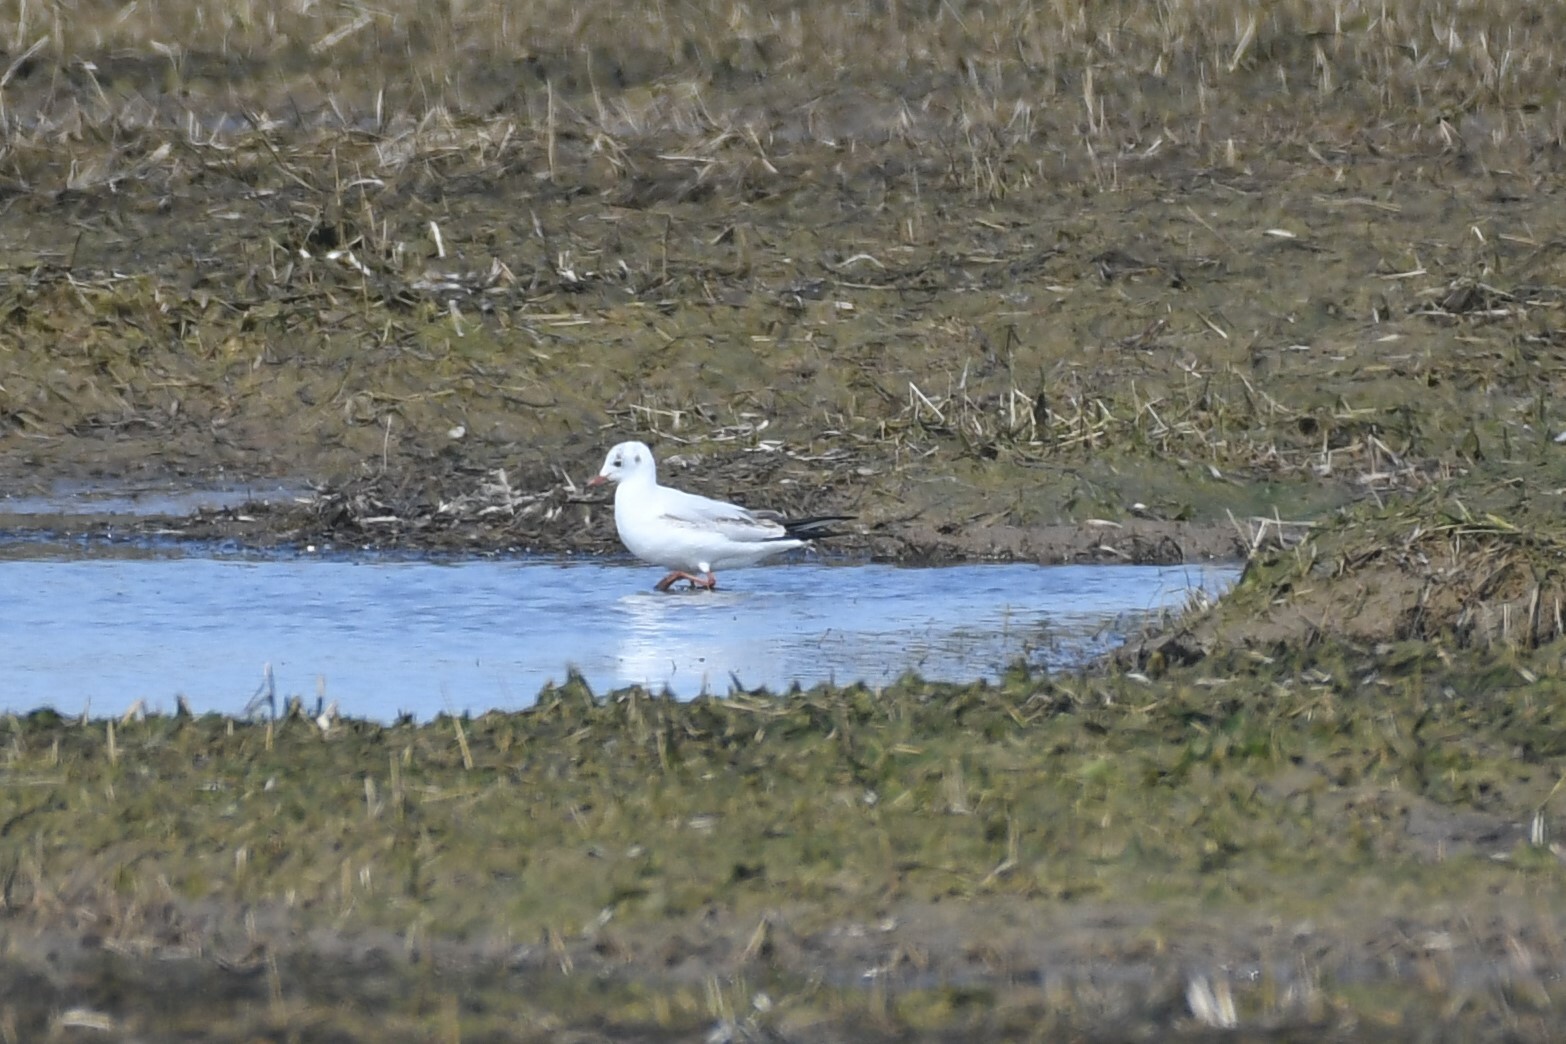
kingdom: Animalia
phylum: Chordata
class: Aves
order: Charadriiformes
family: Laridae
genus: Chroicocephalus
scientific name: Chroicocephalus ridibundus
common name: Black-headed gull
